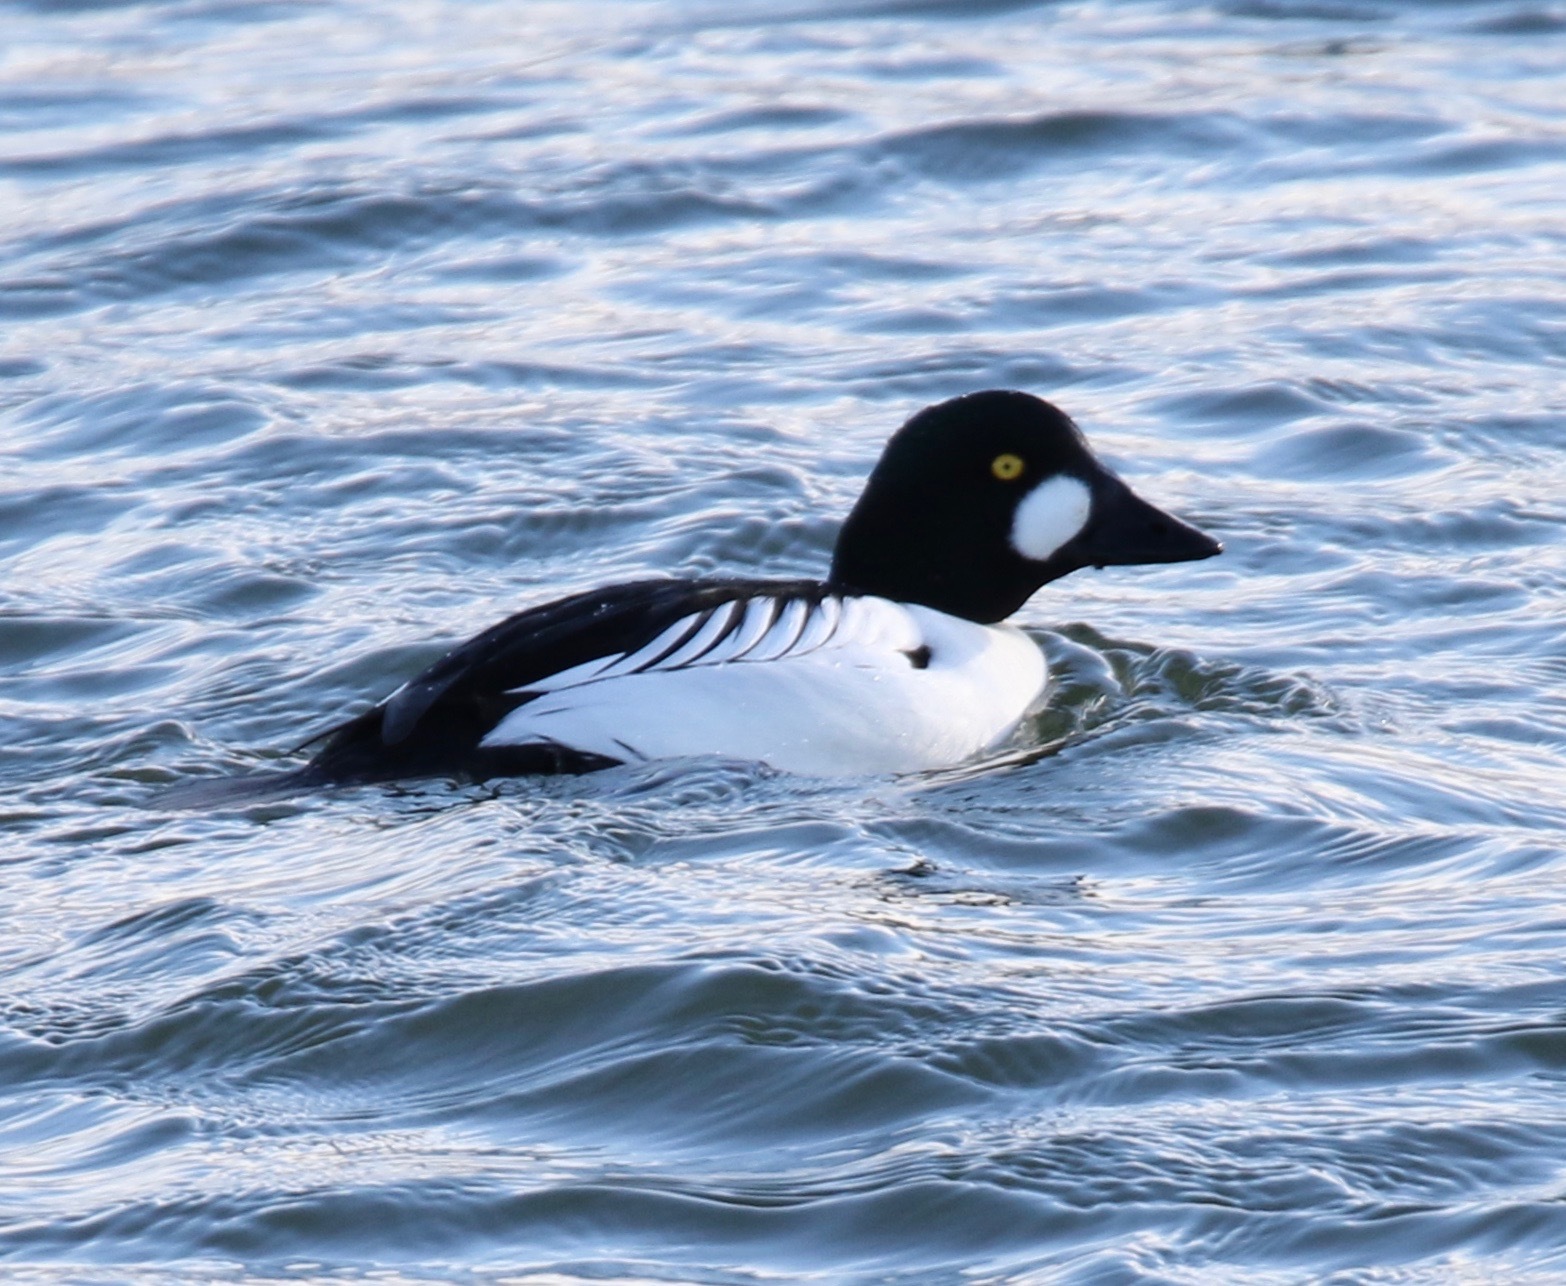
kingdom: Animalia
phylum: Chordata
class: Aves
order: Anseriformes
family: Anatidae
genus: Bucephala
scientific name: Bucephala clangula
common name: Common goldeneye
